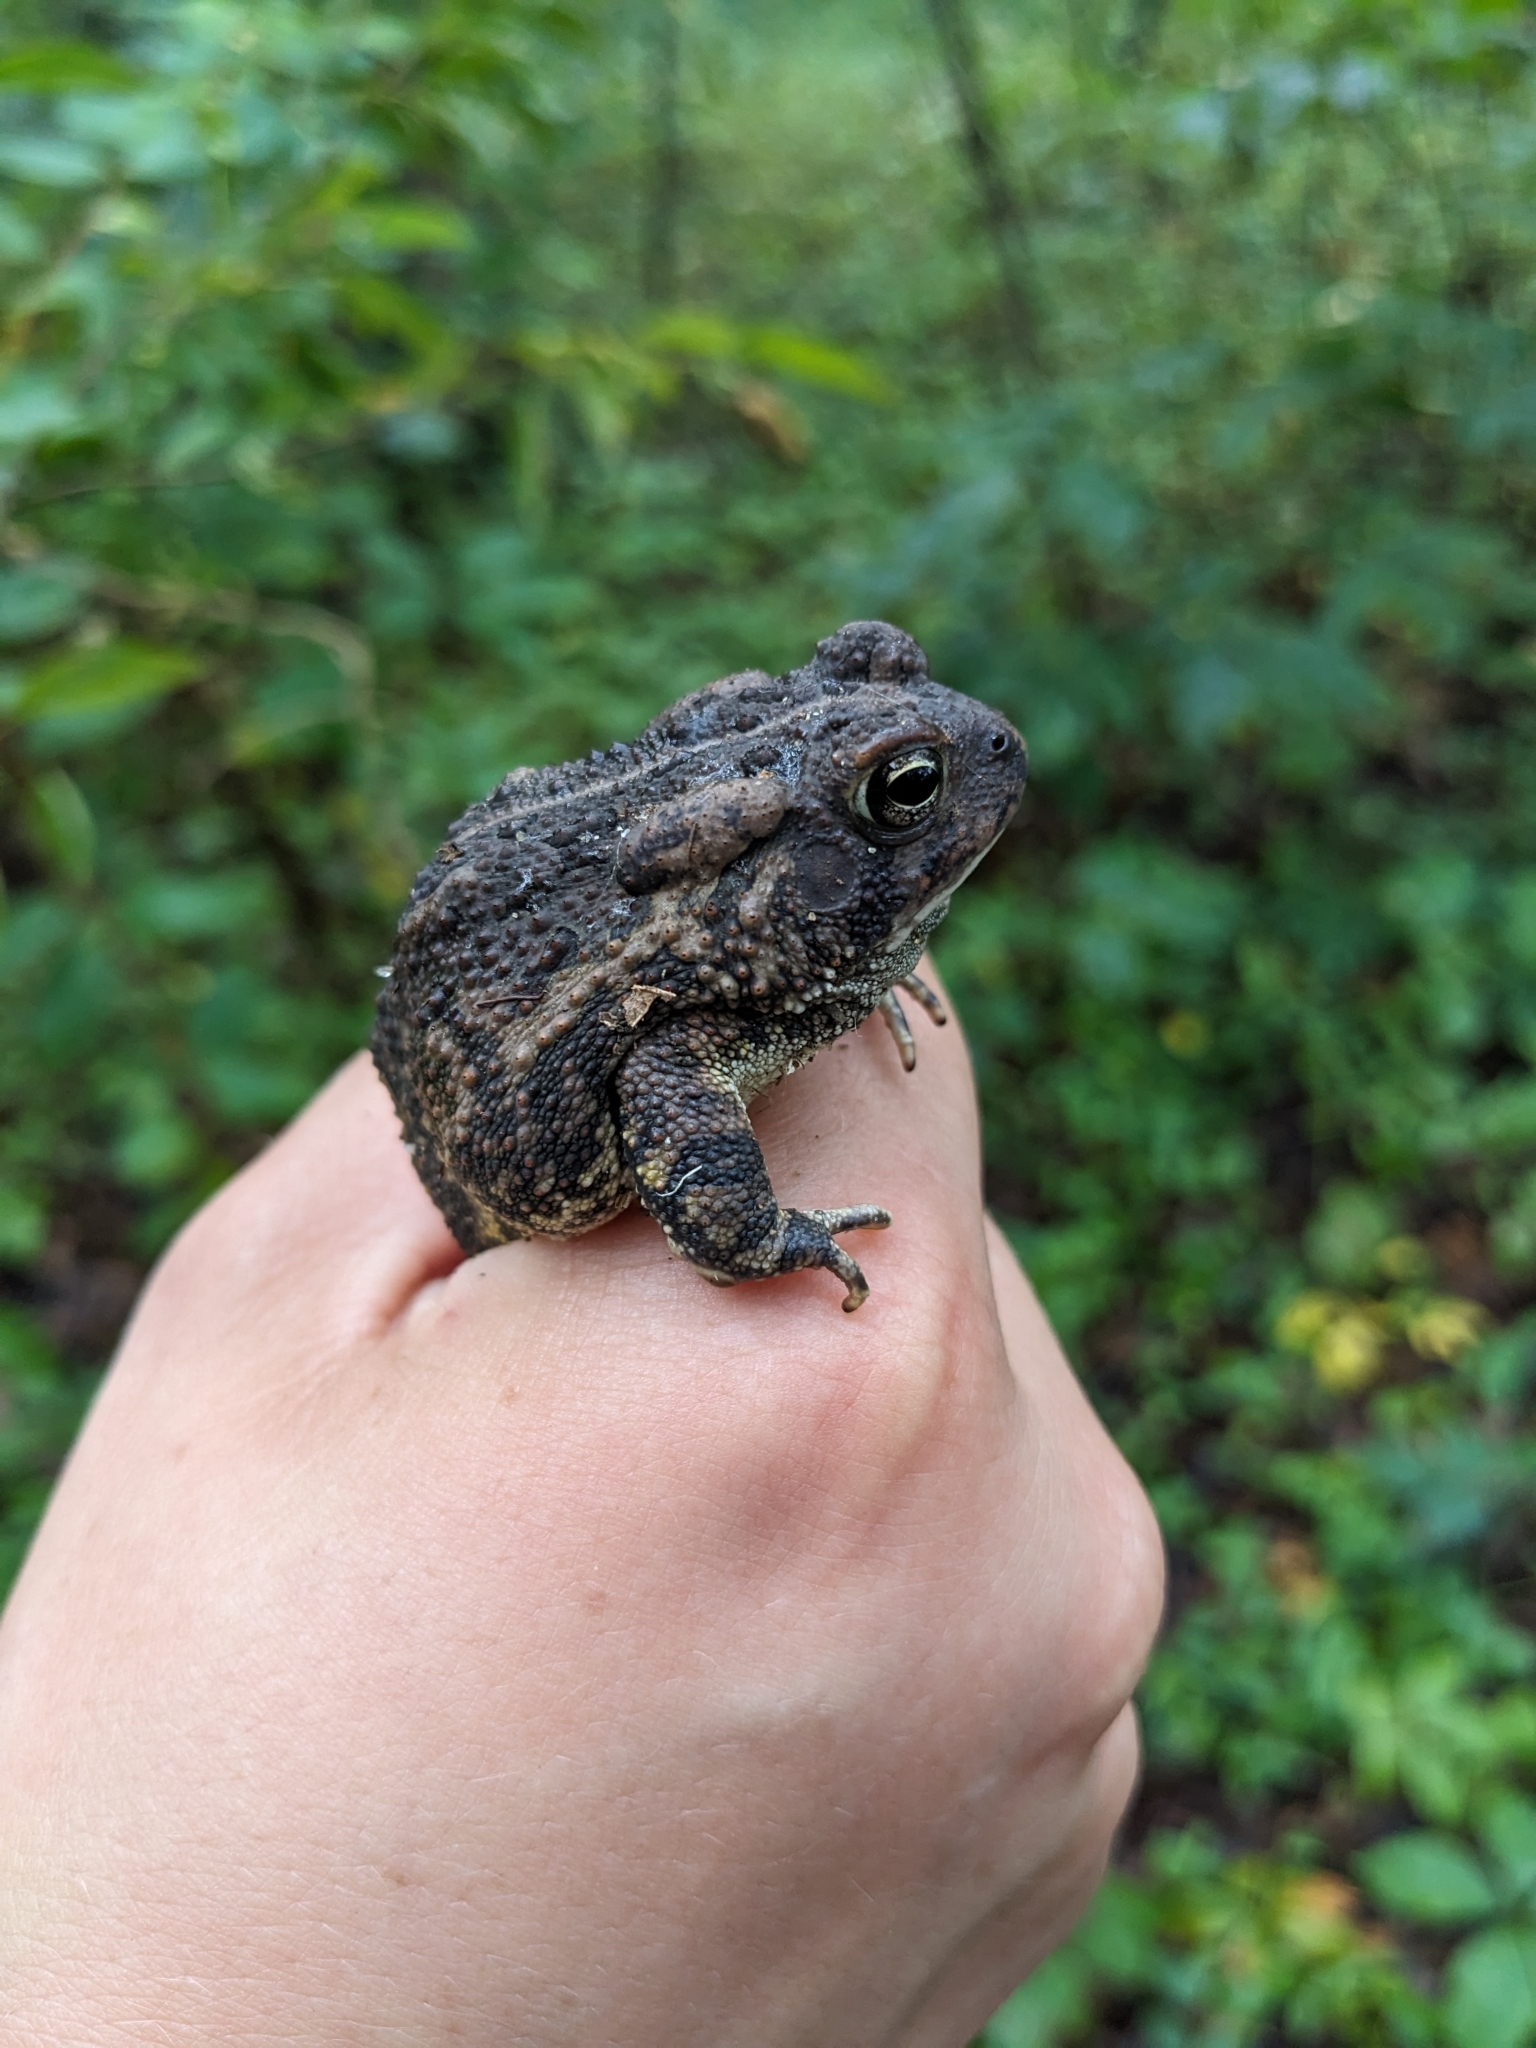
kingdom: Animalia
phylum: Chordata
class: Amphibia
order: Anura
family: Bufonidae
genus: Anaxyrus
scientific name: Anaxyrus fowleri
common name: Fowler's toad
